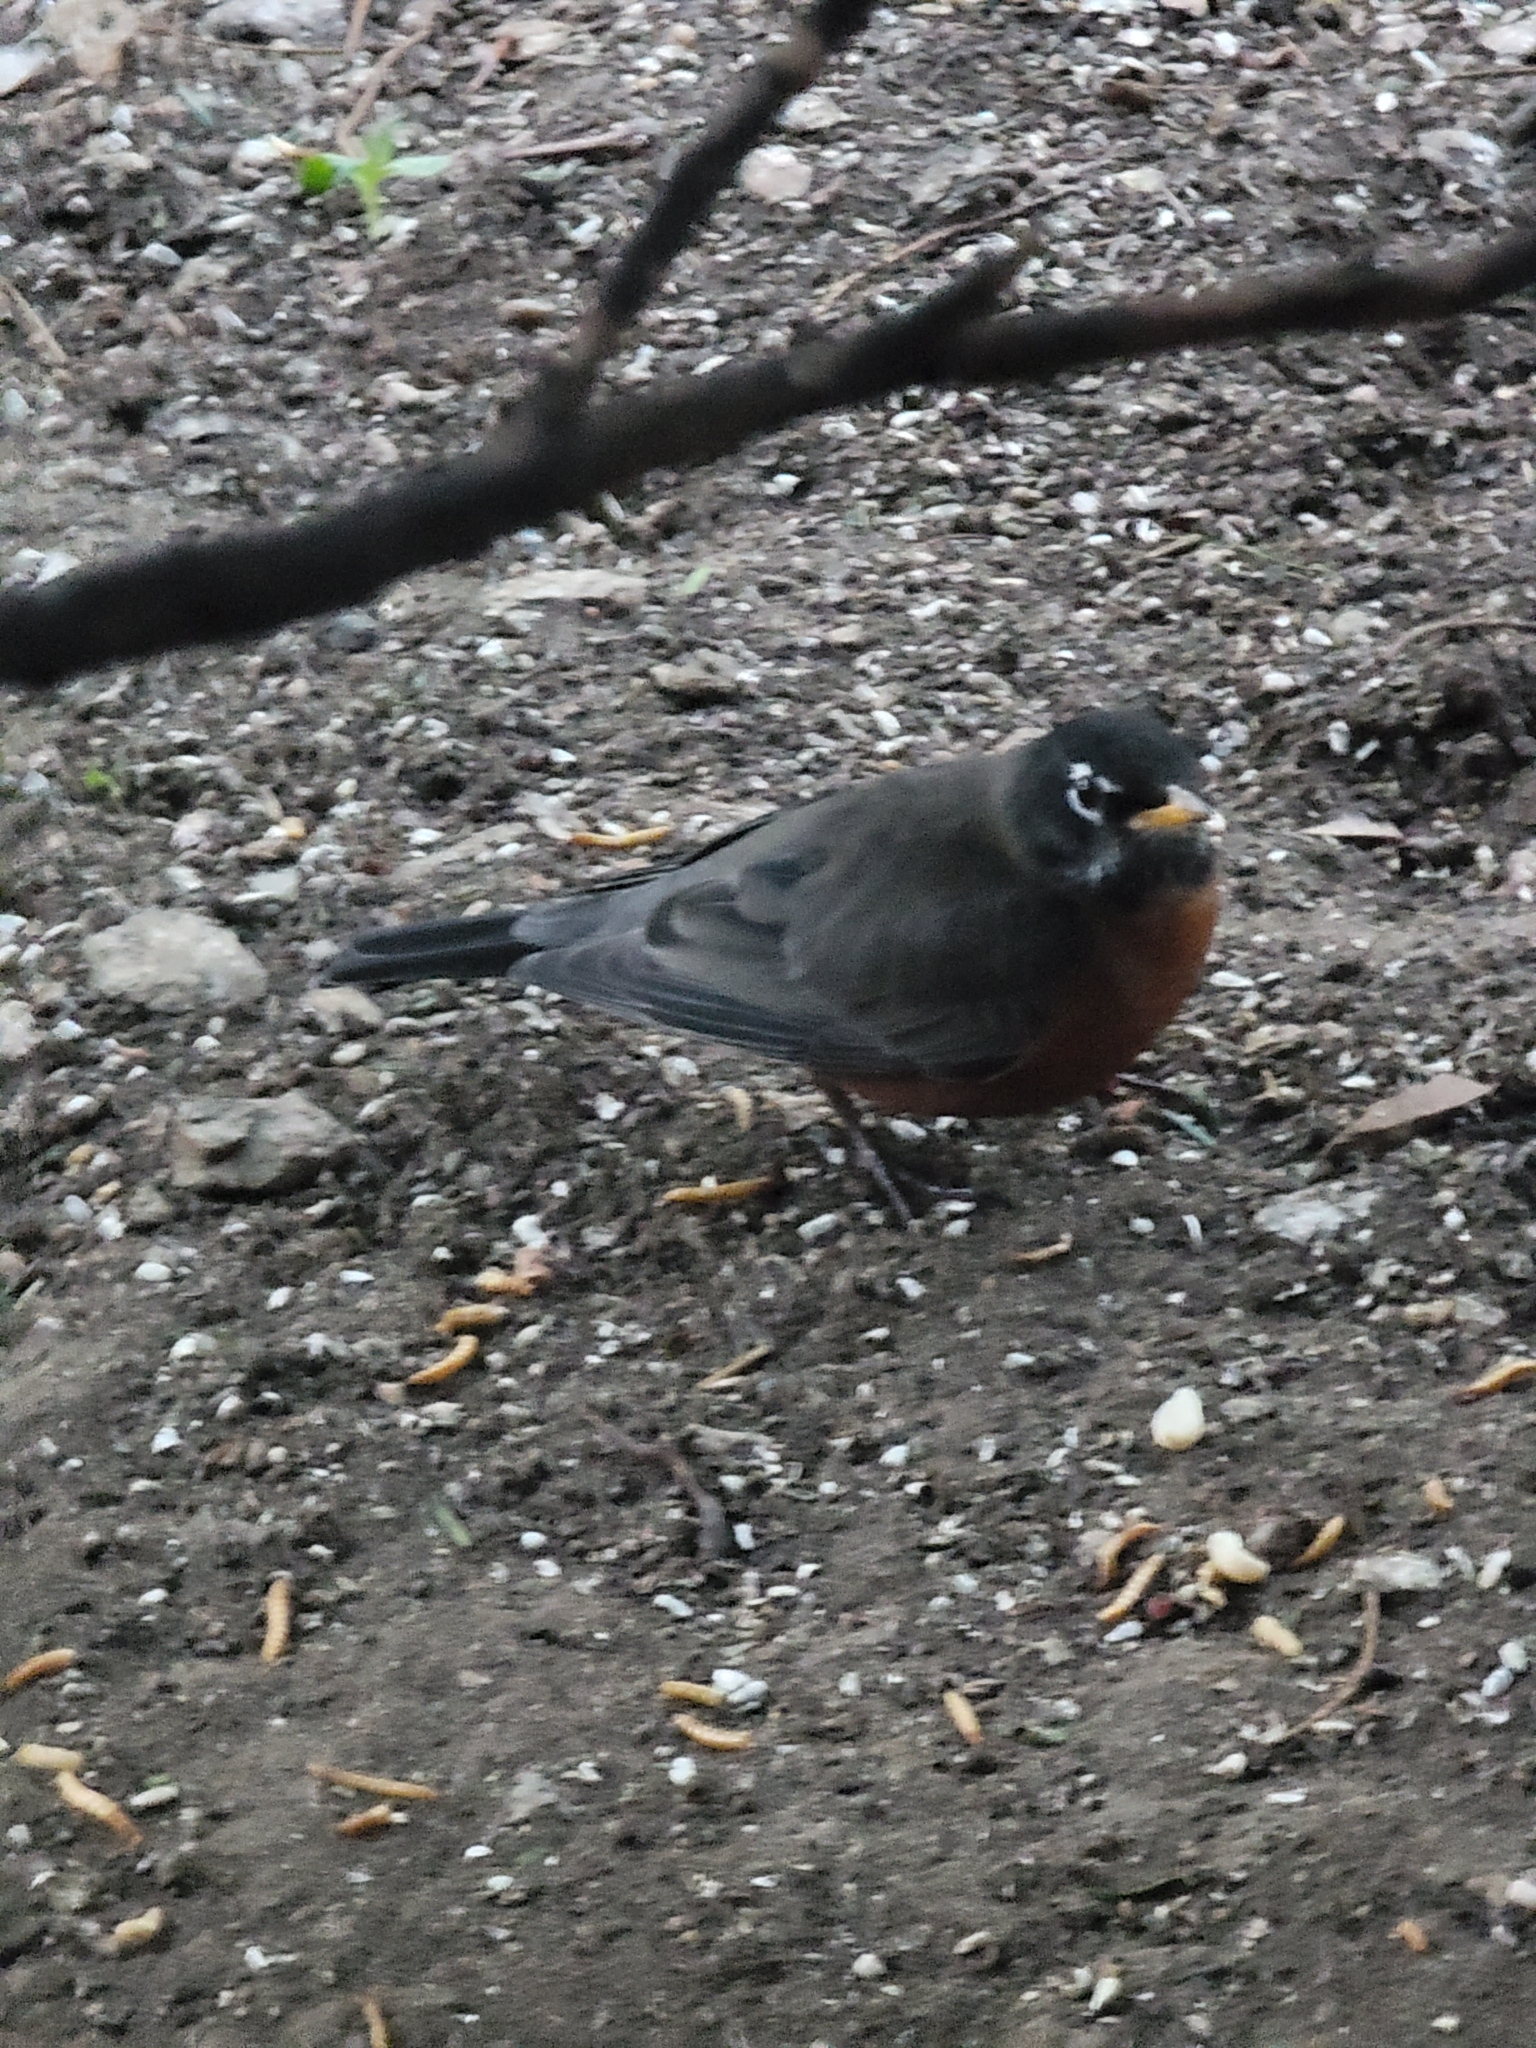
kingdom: Animalia
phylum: Chordata
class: Aves
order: Passeriformes
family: Turdidae
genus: Turdus
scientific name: Turdus migratorius
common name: American robin
